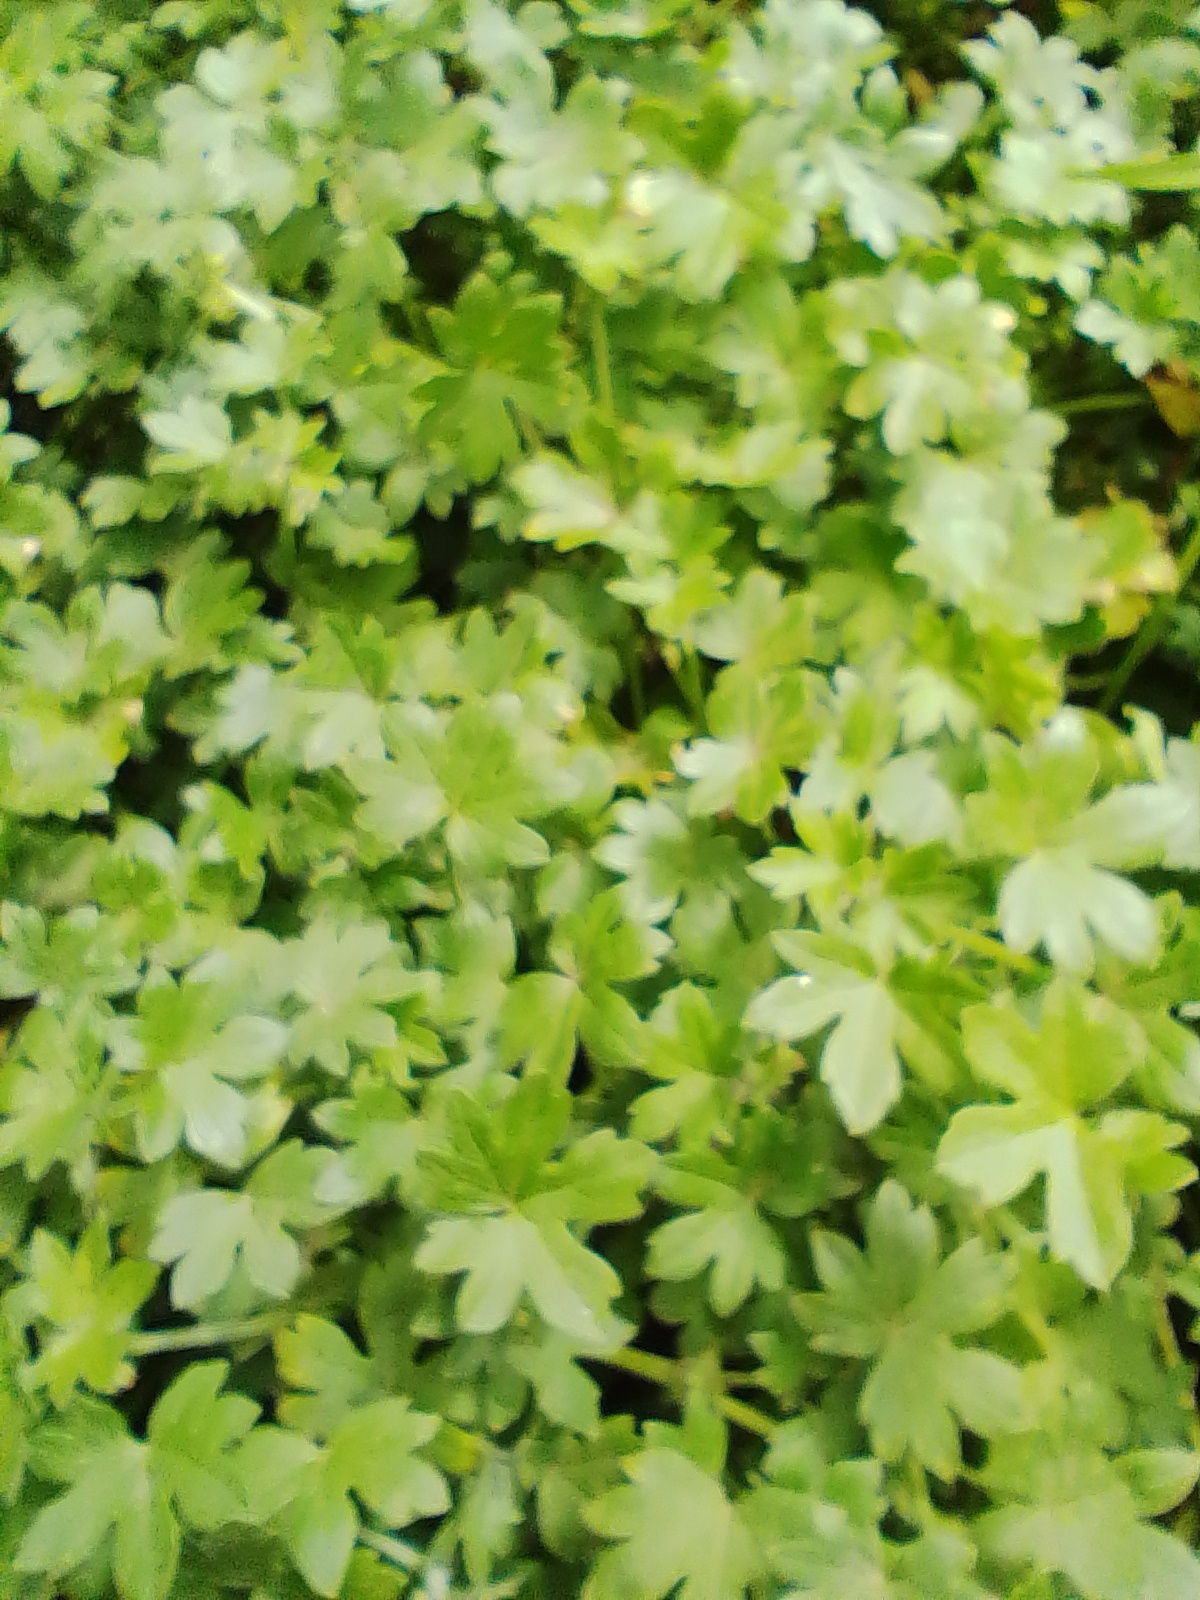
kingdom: Plantae
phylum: Tracheophyta
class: Magnoliopsida
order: Apiales
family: Apiaceae
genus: Bowlesia
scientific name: Bowlesia incana
